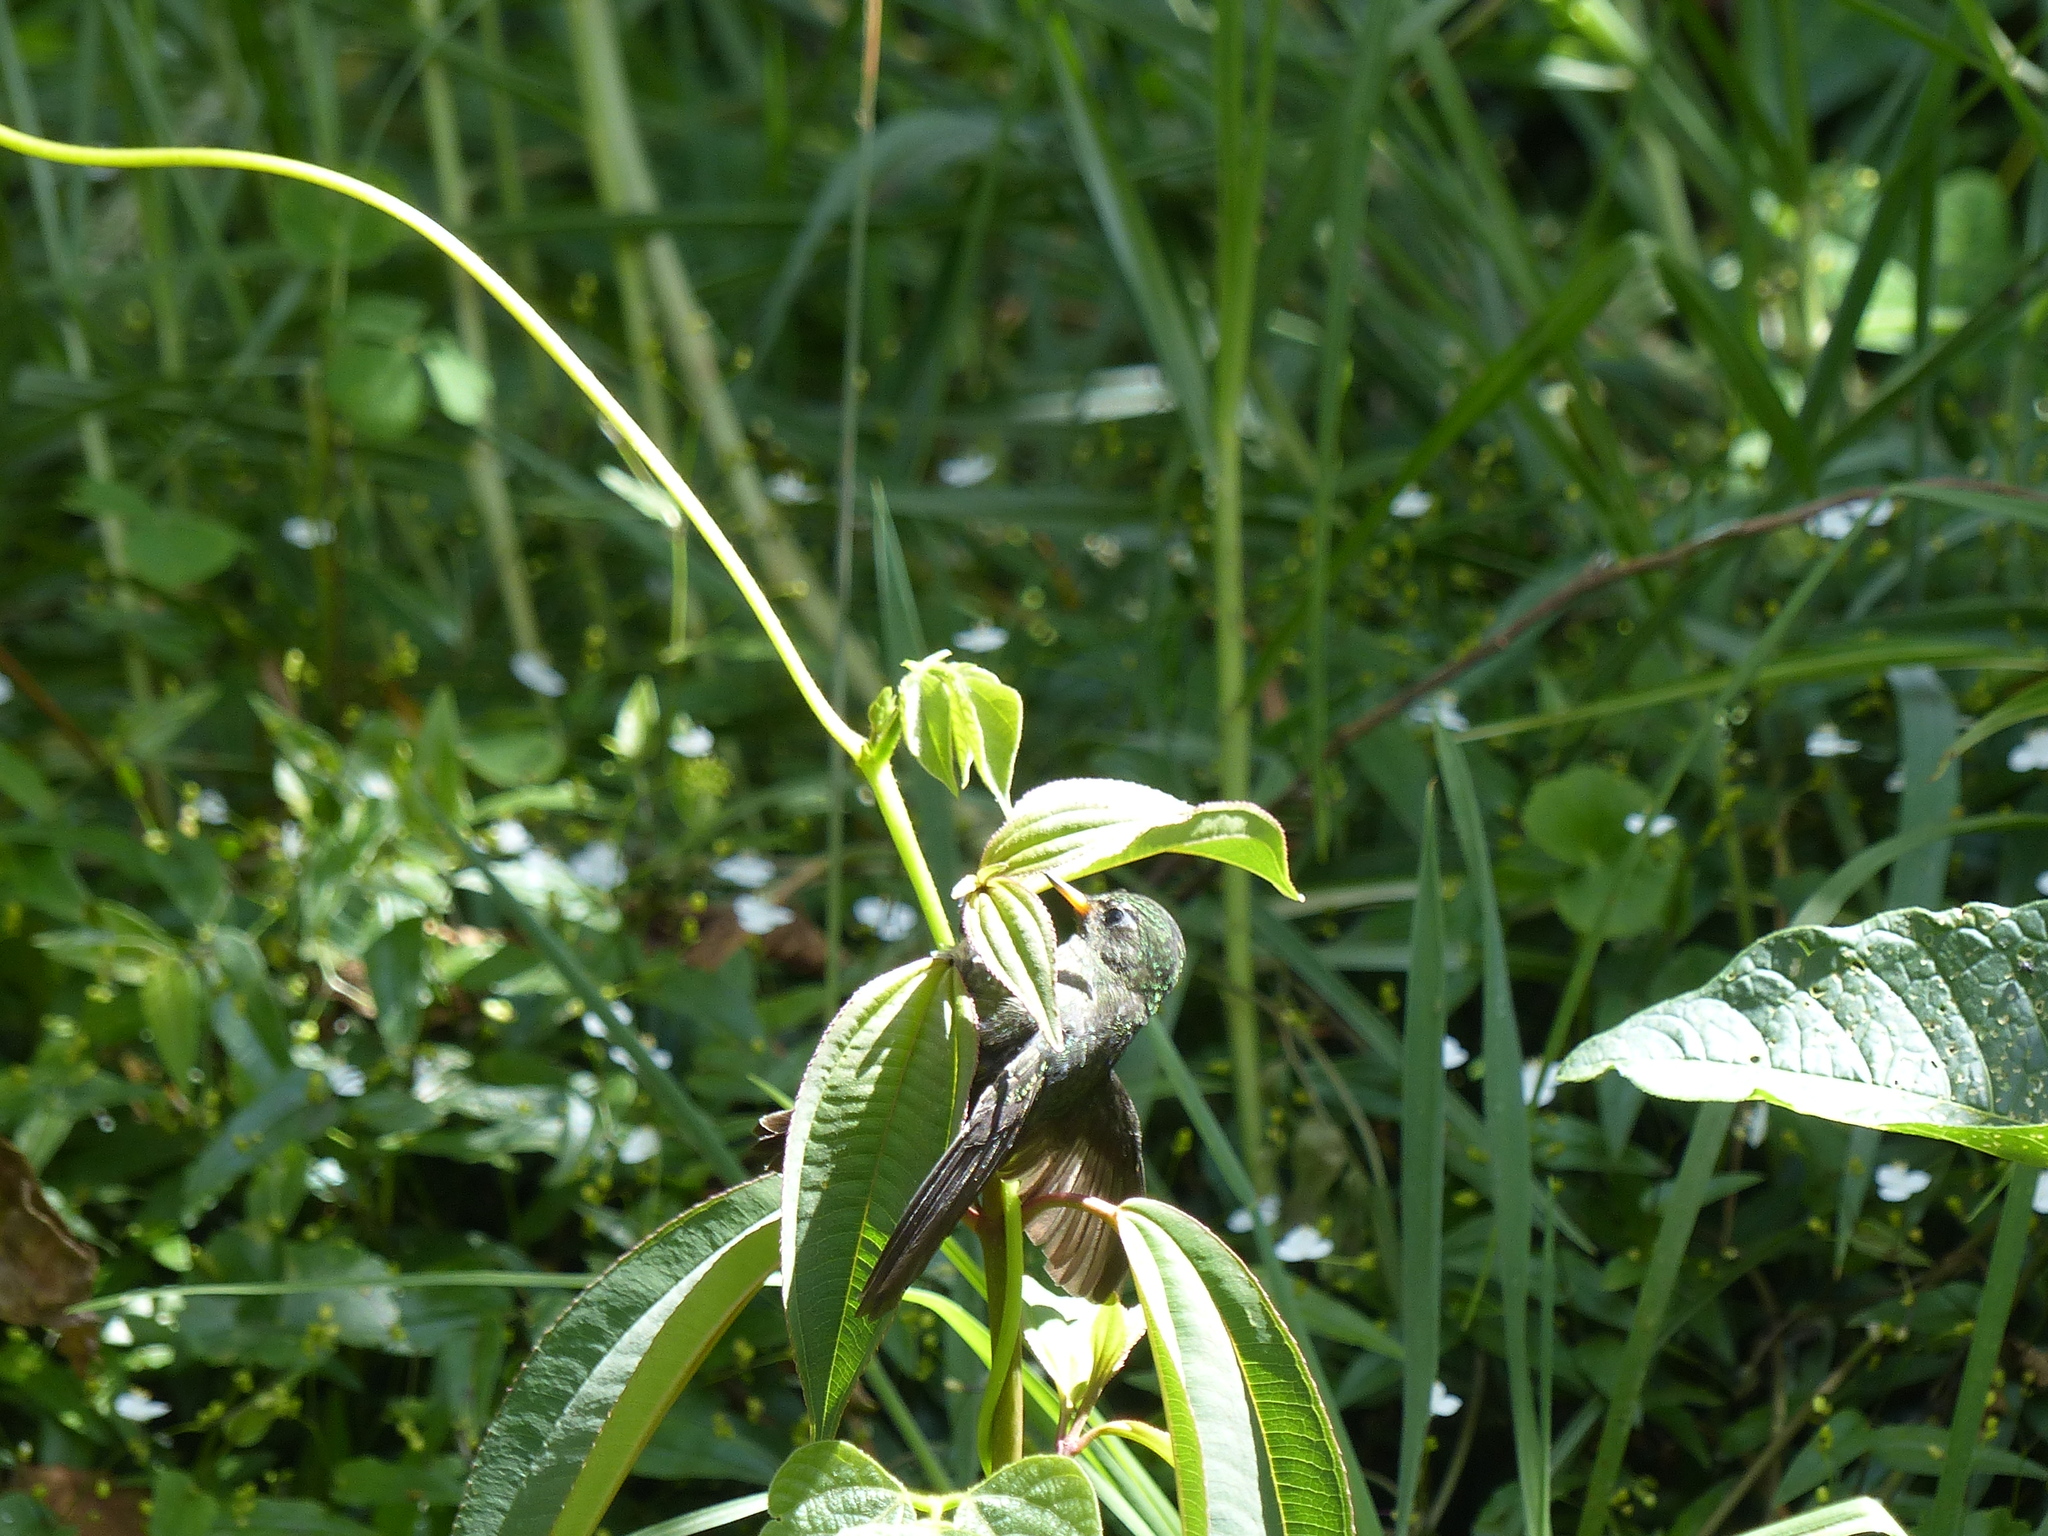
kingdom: Animalia
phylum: Chordata
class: Aves
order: Apodiformes
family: Trochilidae
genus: Metallura
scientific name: Metallura tyrianthina
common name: Tyrian metaltail
